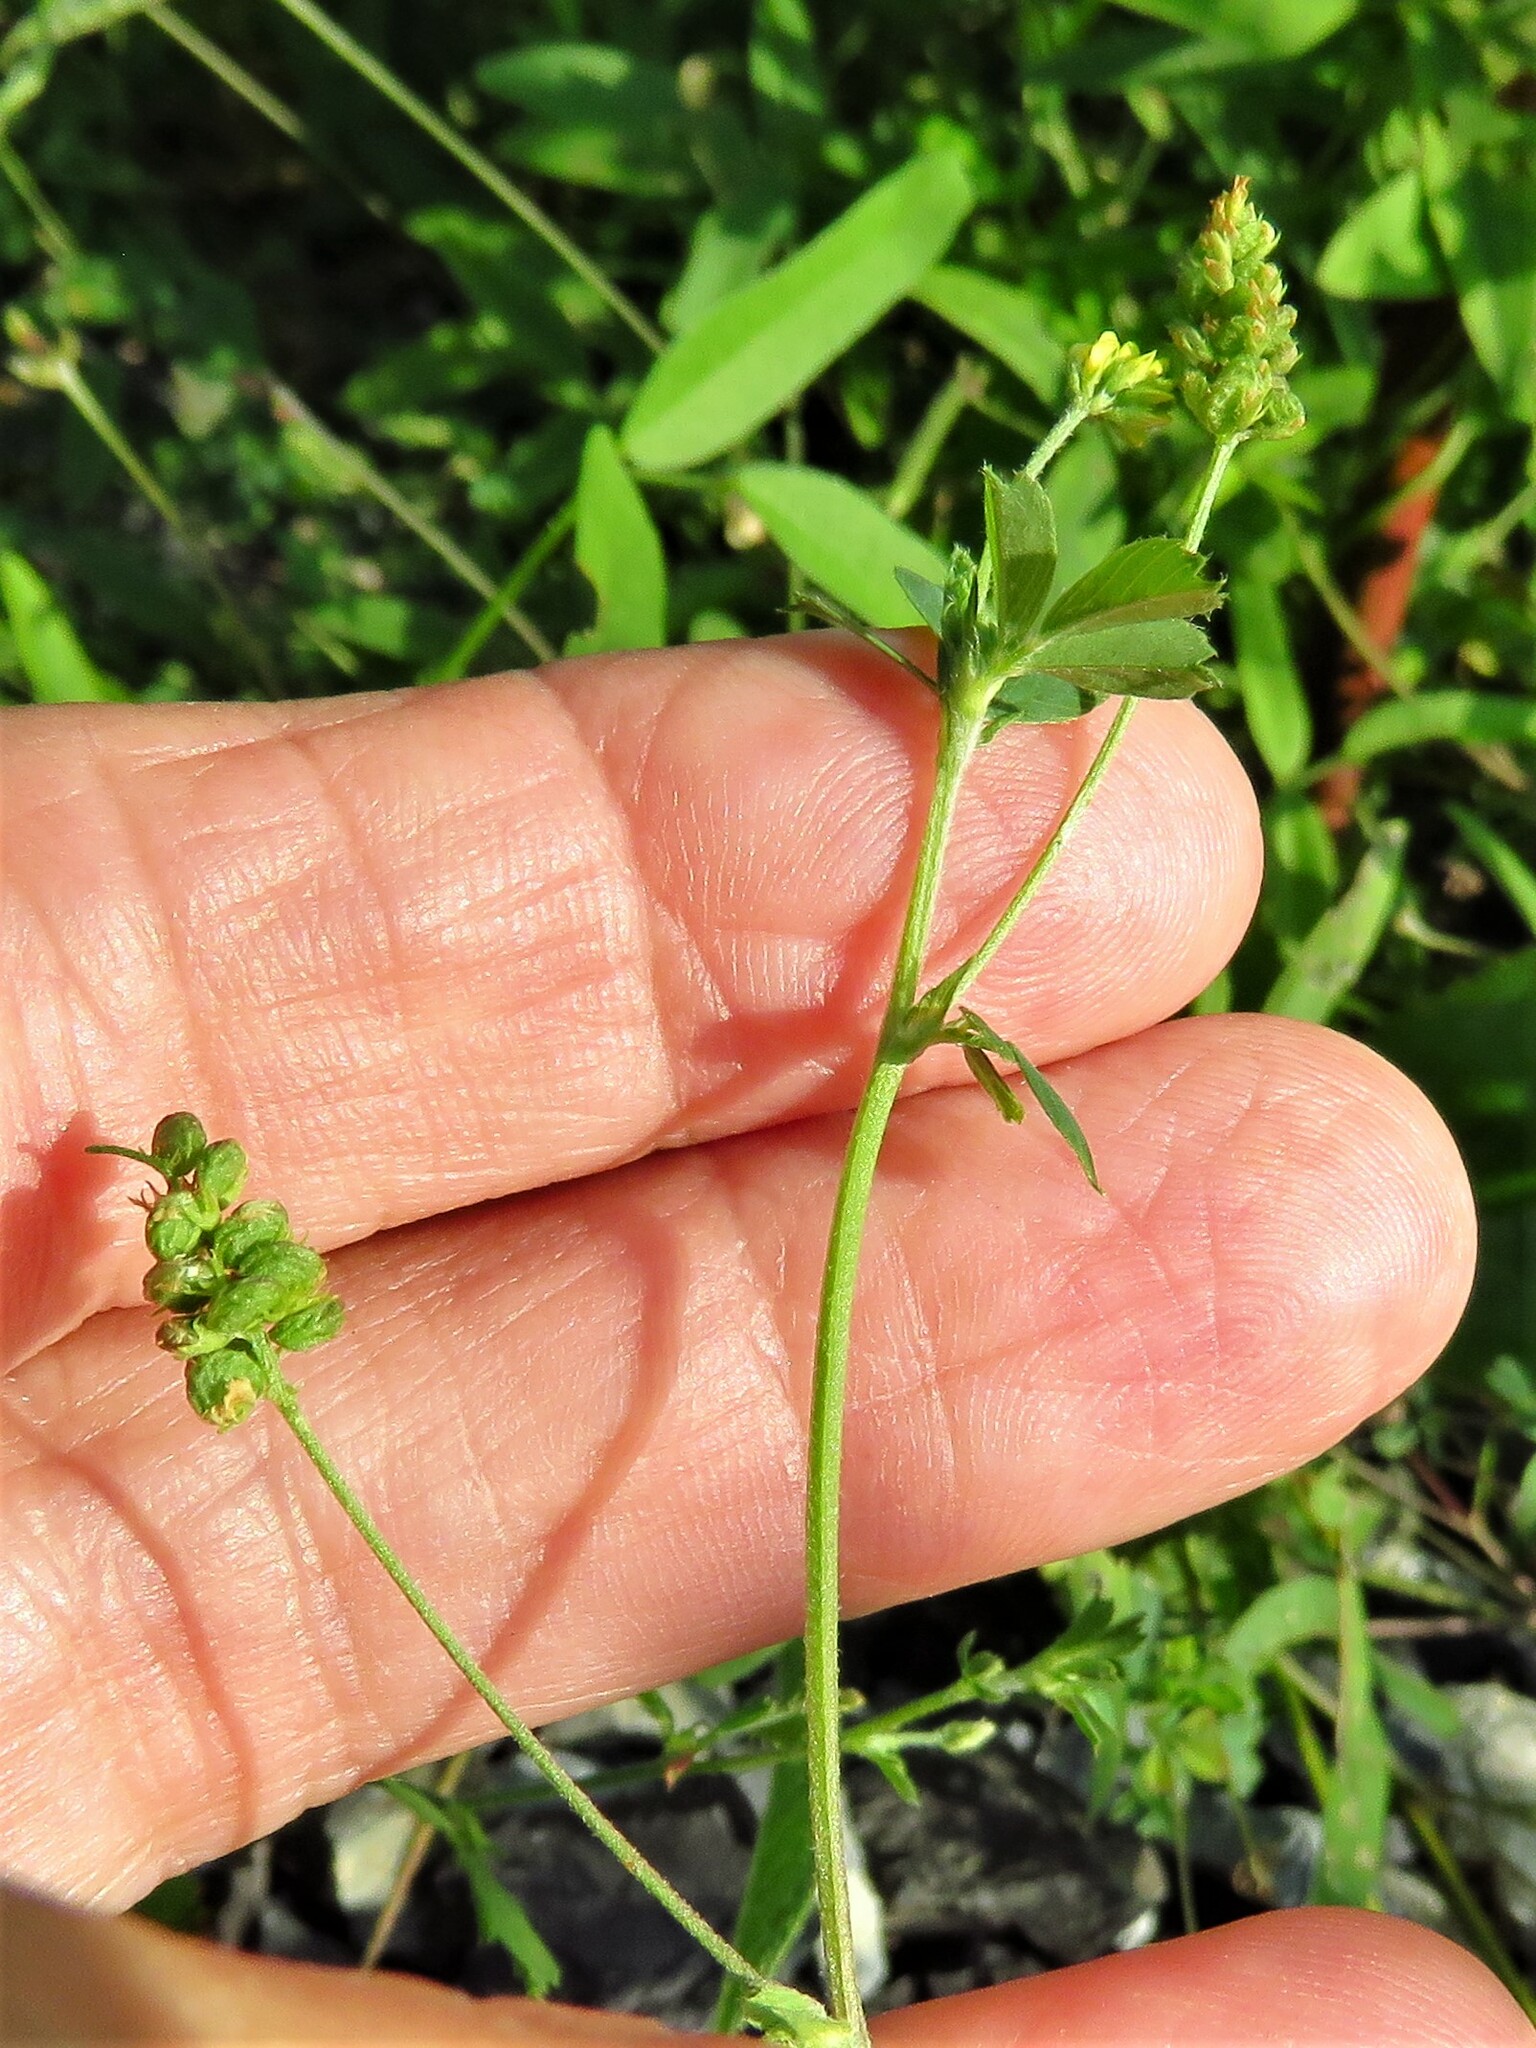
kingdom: Plantae
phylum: Tracheophyta
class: Magnoliopsida
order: Fabales
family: Fabaceae
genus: Medicago
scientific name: Medicago lupulina
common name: Black medick
